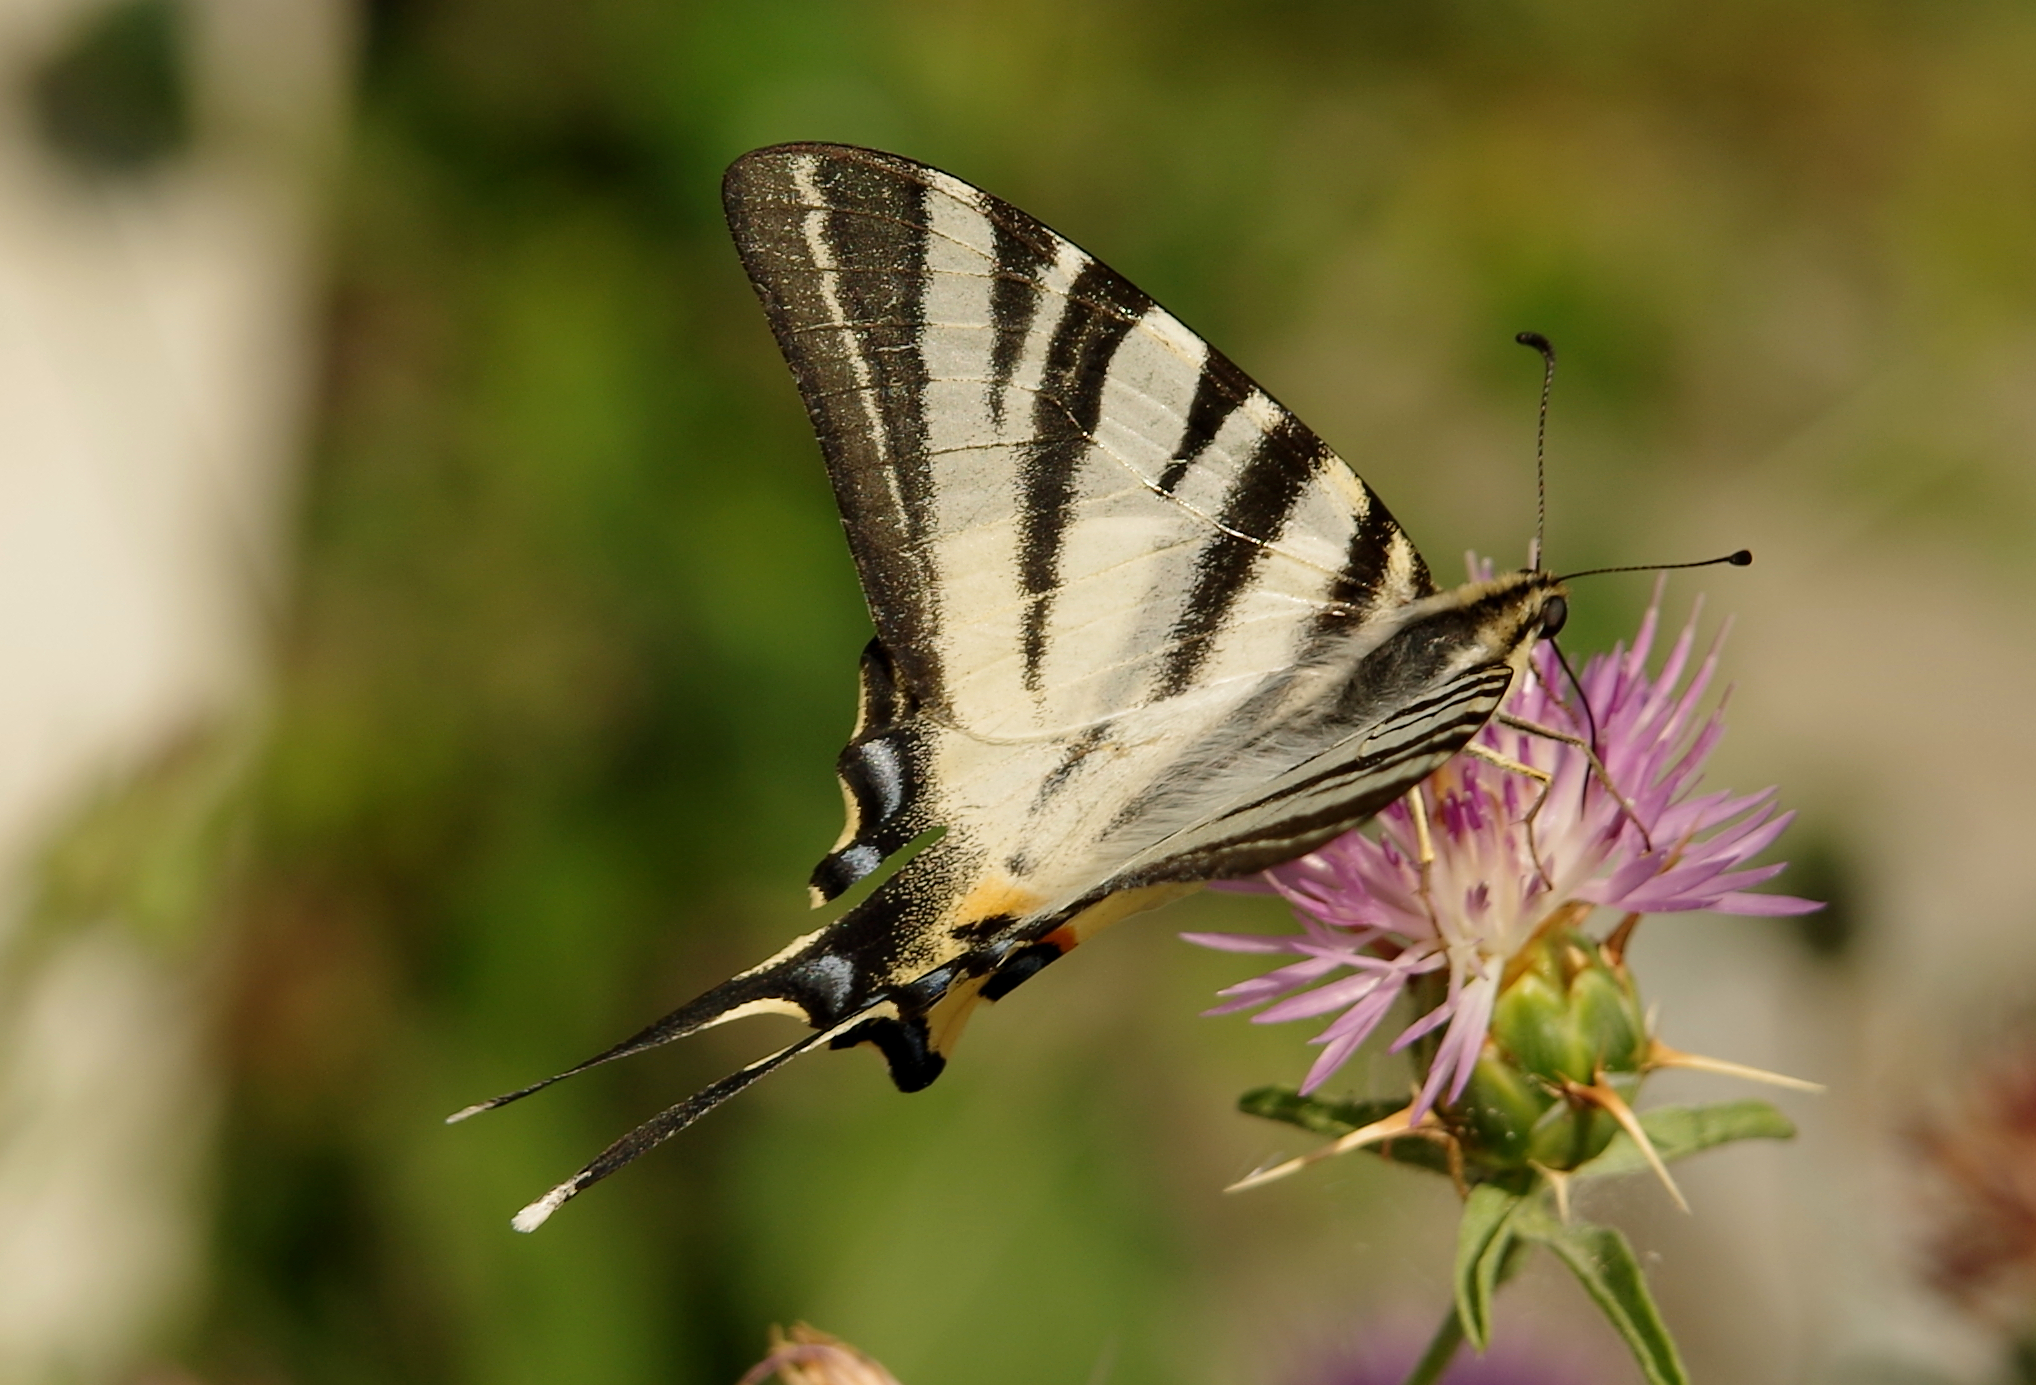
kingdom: Animalia
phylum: Arthropoda
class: Insecta
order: Lepidoptera
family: Papilionidae
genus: Iphiclides
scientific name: Iphiclides podalirius
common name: Scarce swallowtail
